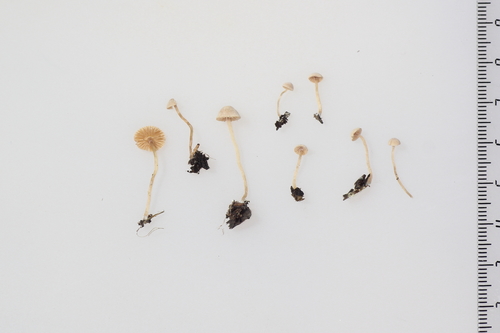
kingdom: Fungi
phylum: Basidiomycota
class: Agaricomycetes
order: Agaricales
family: Tubariaceae
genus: Flammulaster
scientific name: Flammulaster carpophilus
